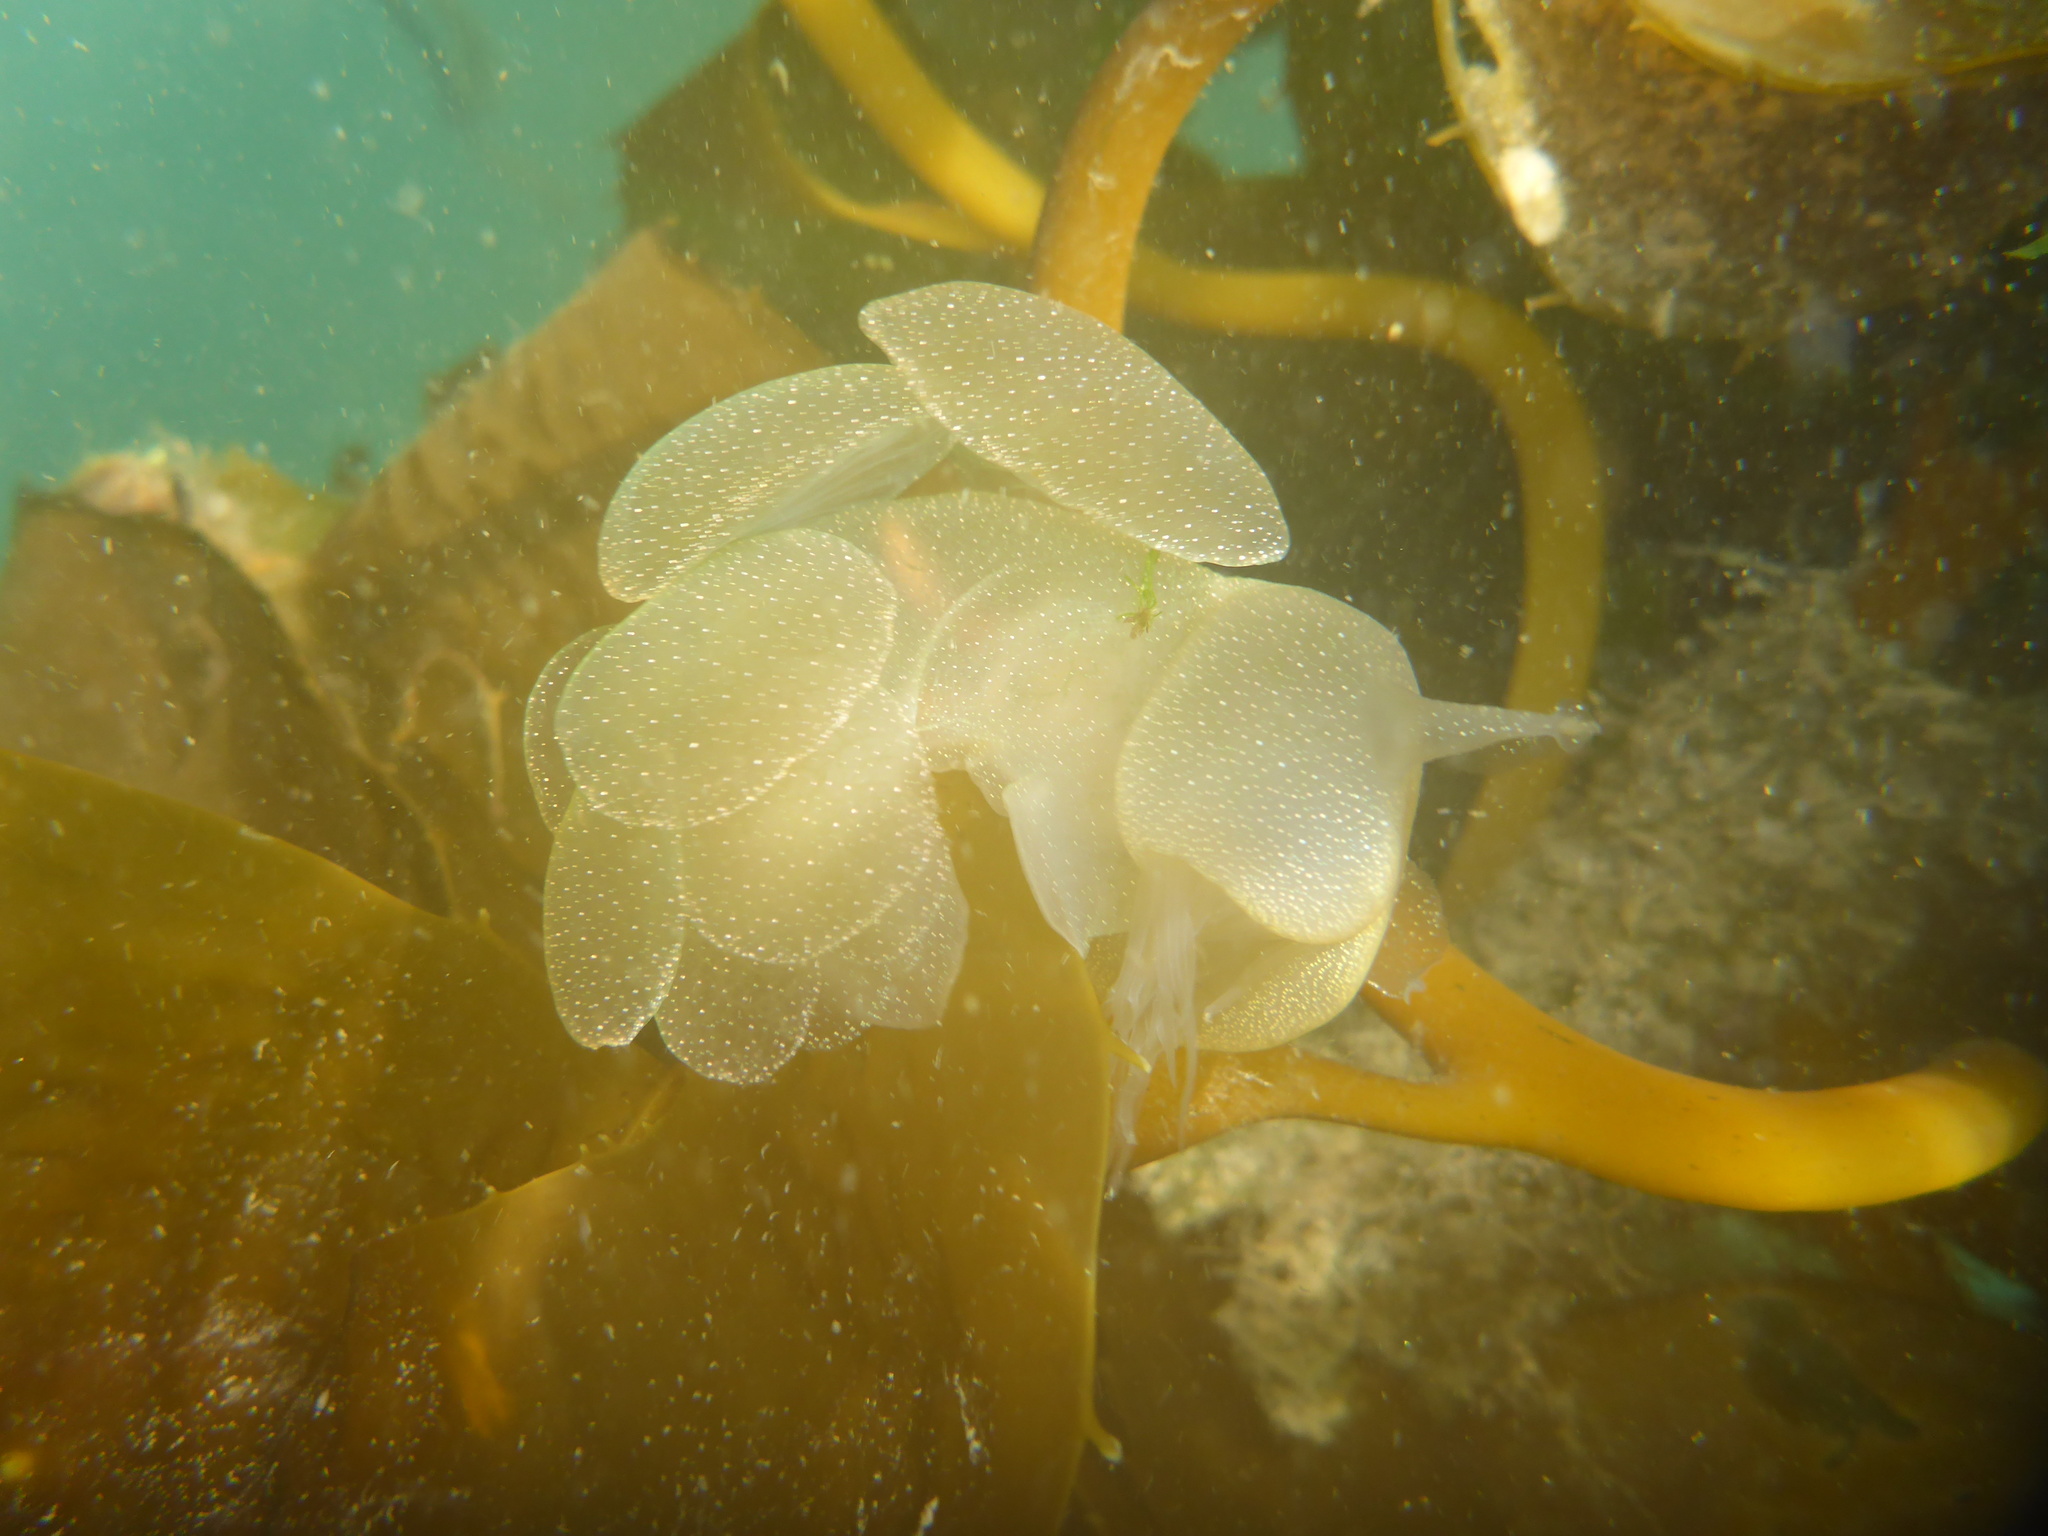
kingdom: Animalia
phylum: Mollusca
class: Gastropoda
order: Nudibranchia
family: Tethydidae
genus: Melibe
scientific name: Melibe leonina
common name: Lion nudibranch
